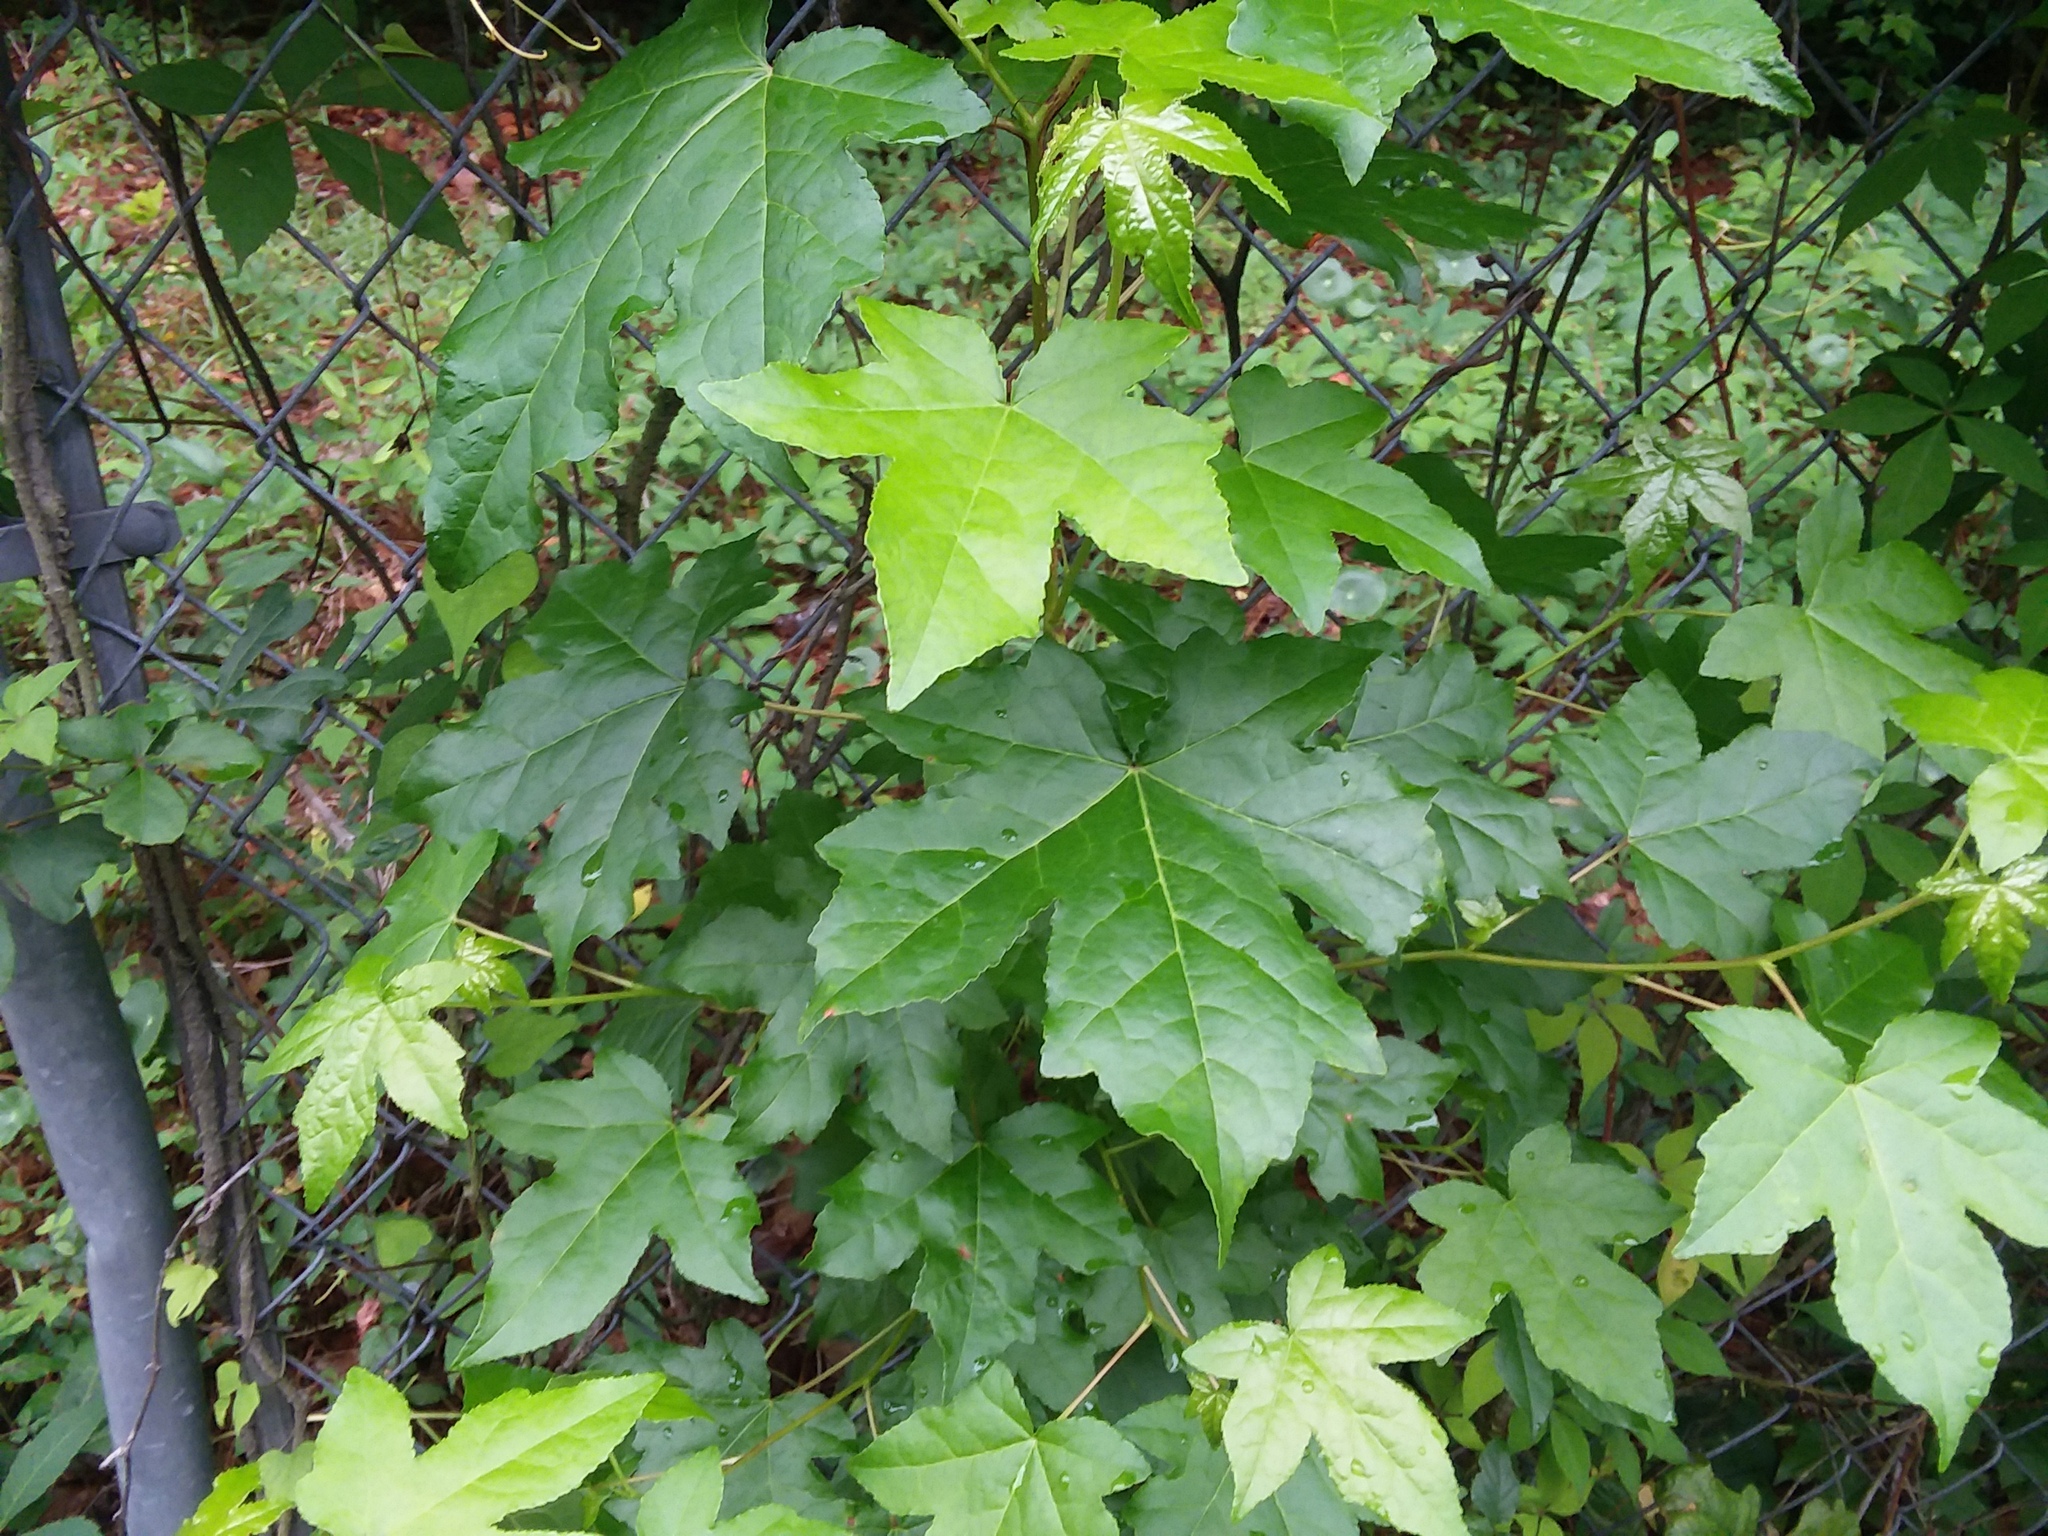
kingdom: Plantae
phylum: Tracheophyta
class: Magnoliopsida
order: Saxifragales
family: Altingiaceae
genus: Liquidambar
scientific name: Liquidambar styraciflua
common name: Sweet gum
